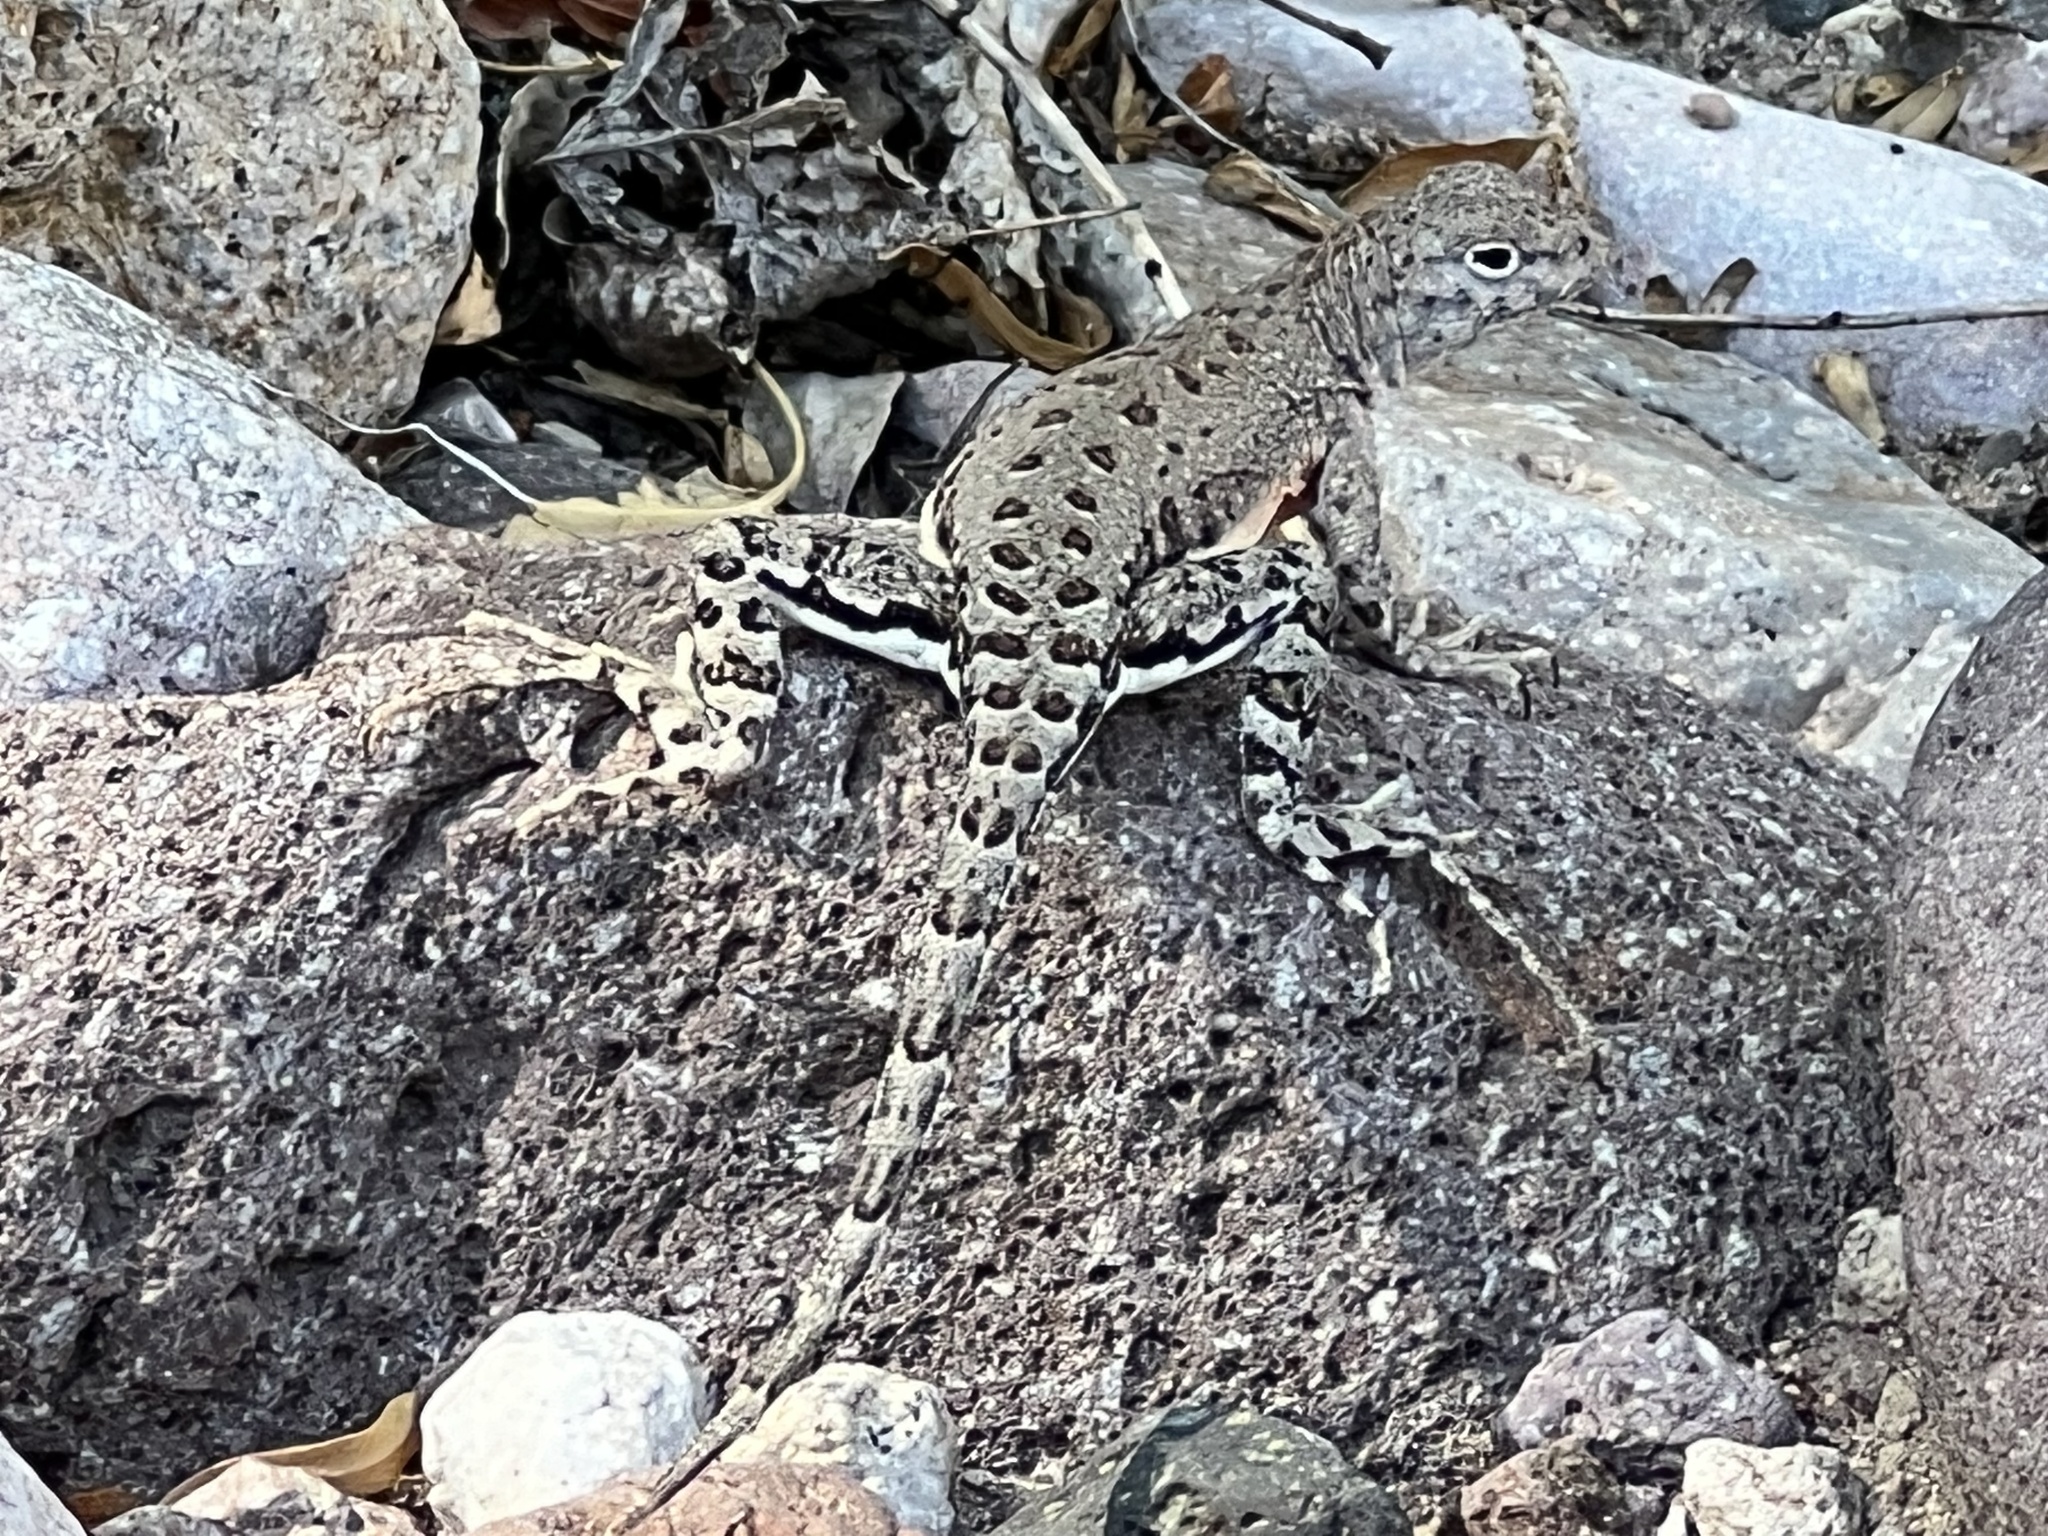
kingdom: Animalia
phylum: Chordata
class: Squamata
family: Phrynosomatidae
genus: Cophosaurus
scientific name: Cophosaurus texanus
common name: Greater earless lizard
